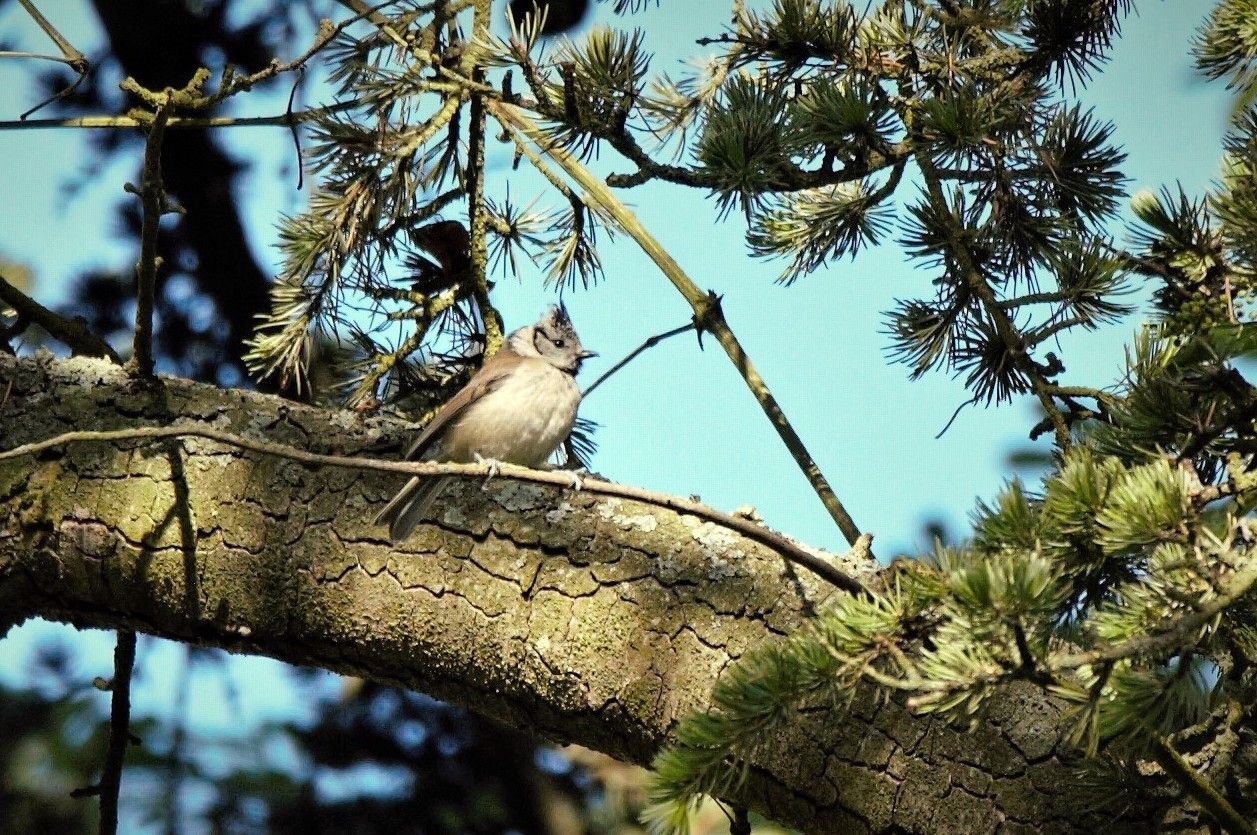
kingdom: Animalia
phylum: Chordata
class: Aves
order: Passeriformes
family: Paridae
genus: Lophophanes
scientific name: Lophophanes cristatus
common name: European crested tit
